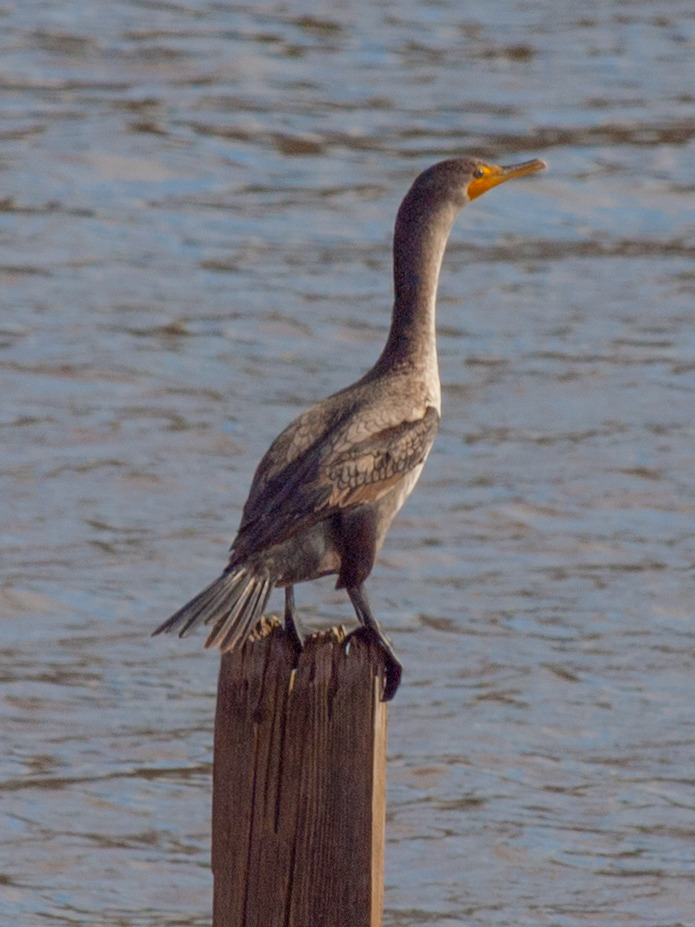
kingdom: Animalia
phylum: Chordata
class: Aves
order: Suliformes
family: Phalacrocoracidae
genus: Phalacrocorax
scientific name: Phalacrocorax auritus
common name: Double-crested cormorant
